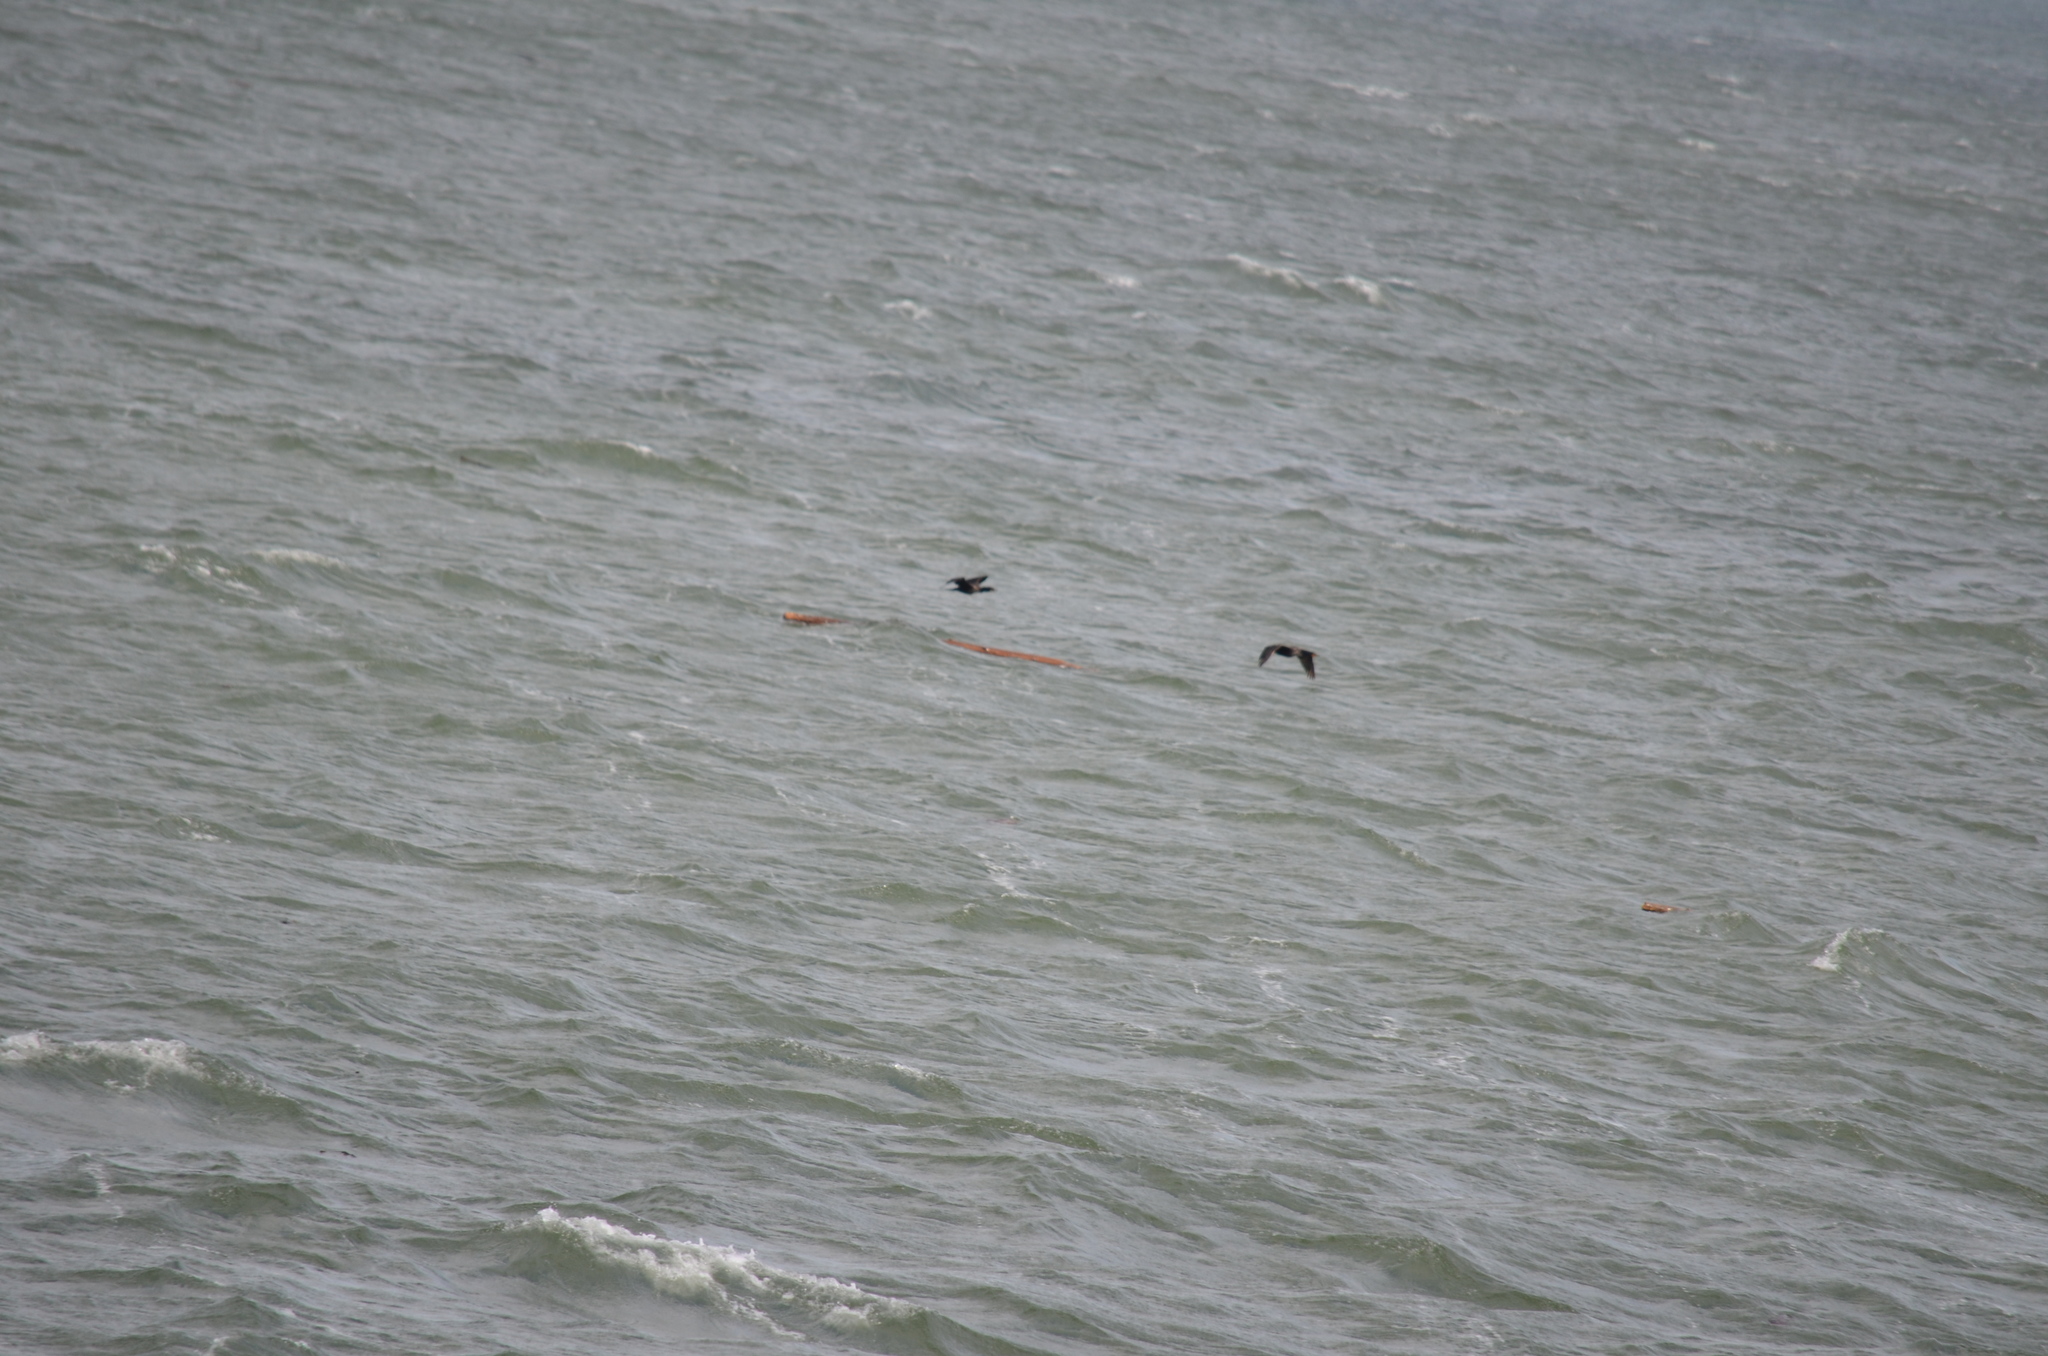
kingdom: Animalia
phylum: Chordata
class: Aves
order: Suliformes
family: Phalacrocoracidae
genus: Phalacrocorax
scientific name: Phalacrocorax auritus
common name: Double-crested cormorant
